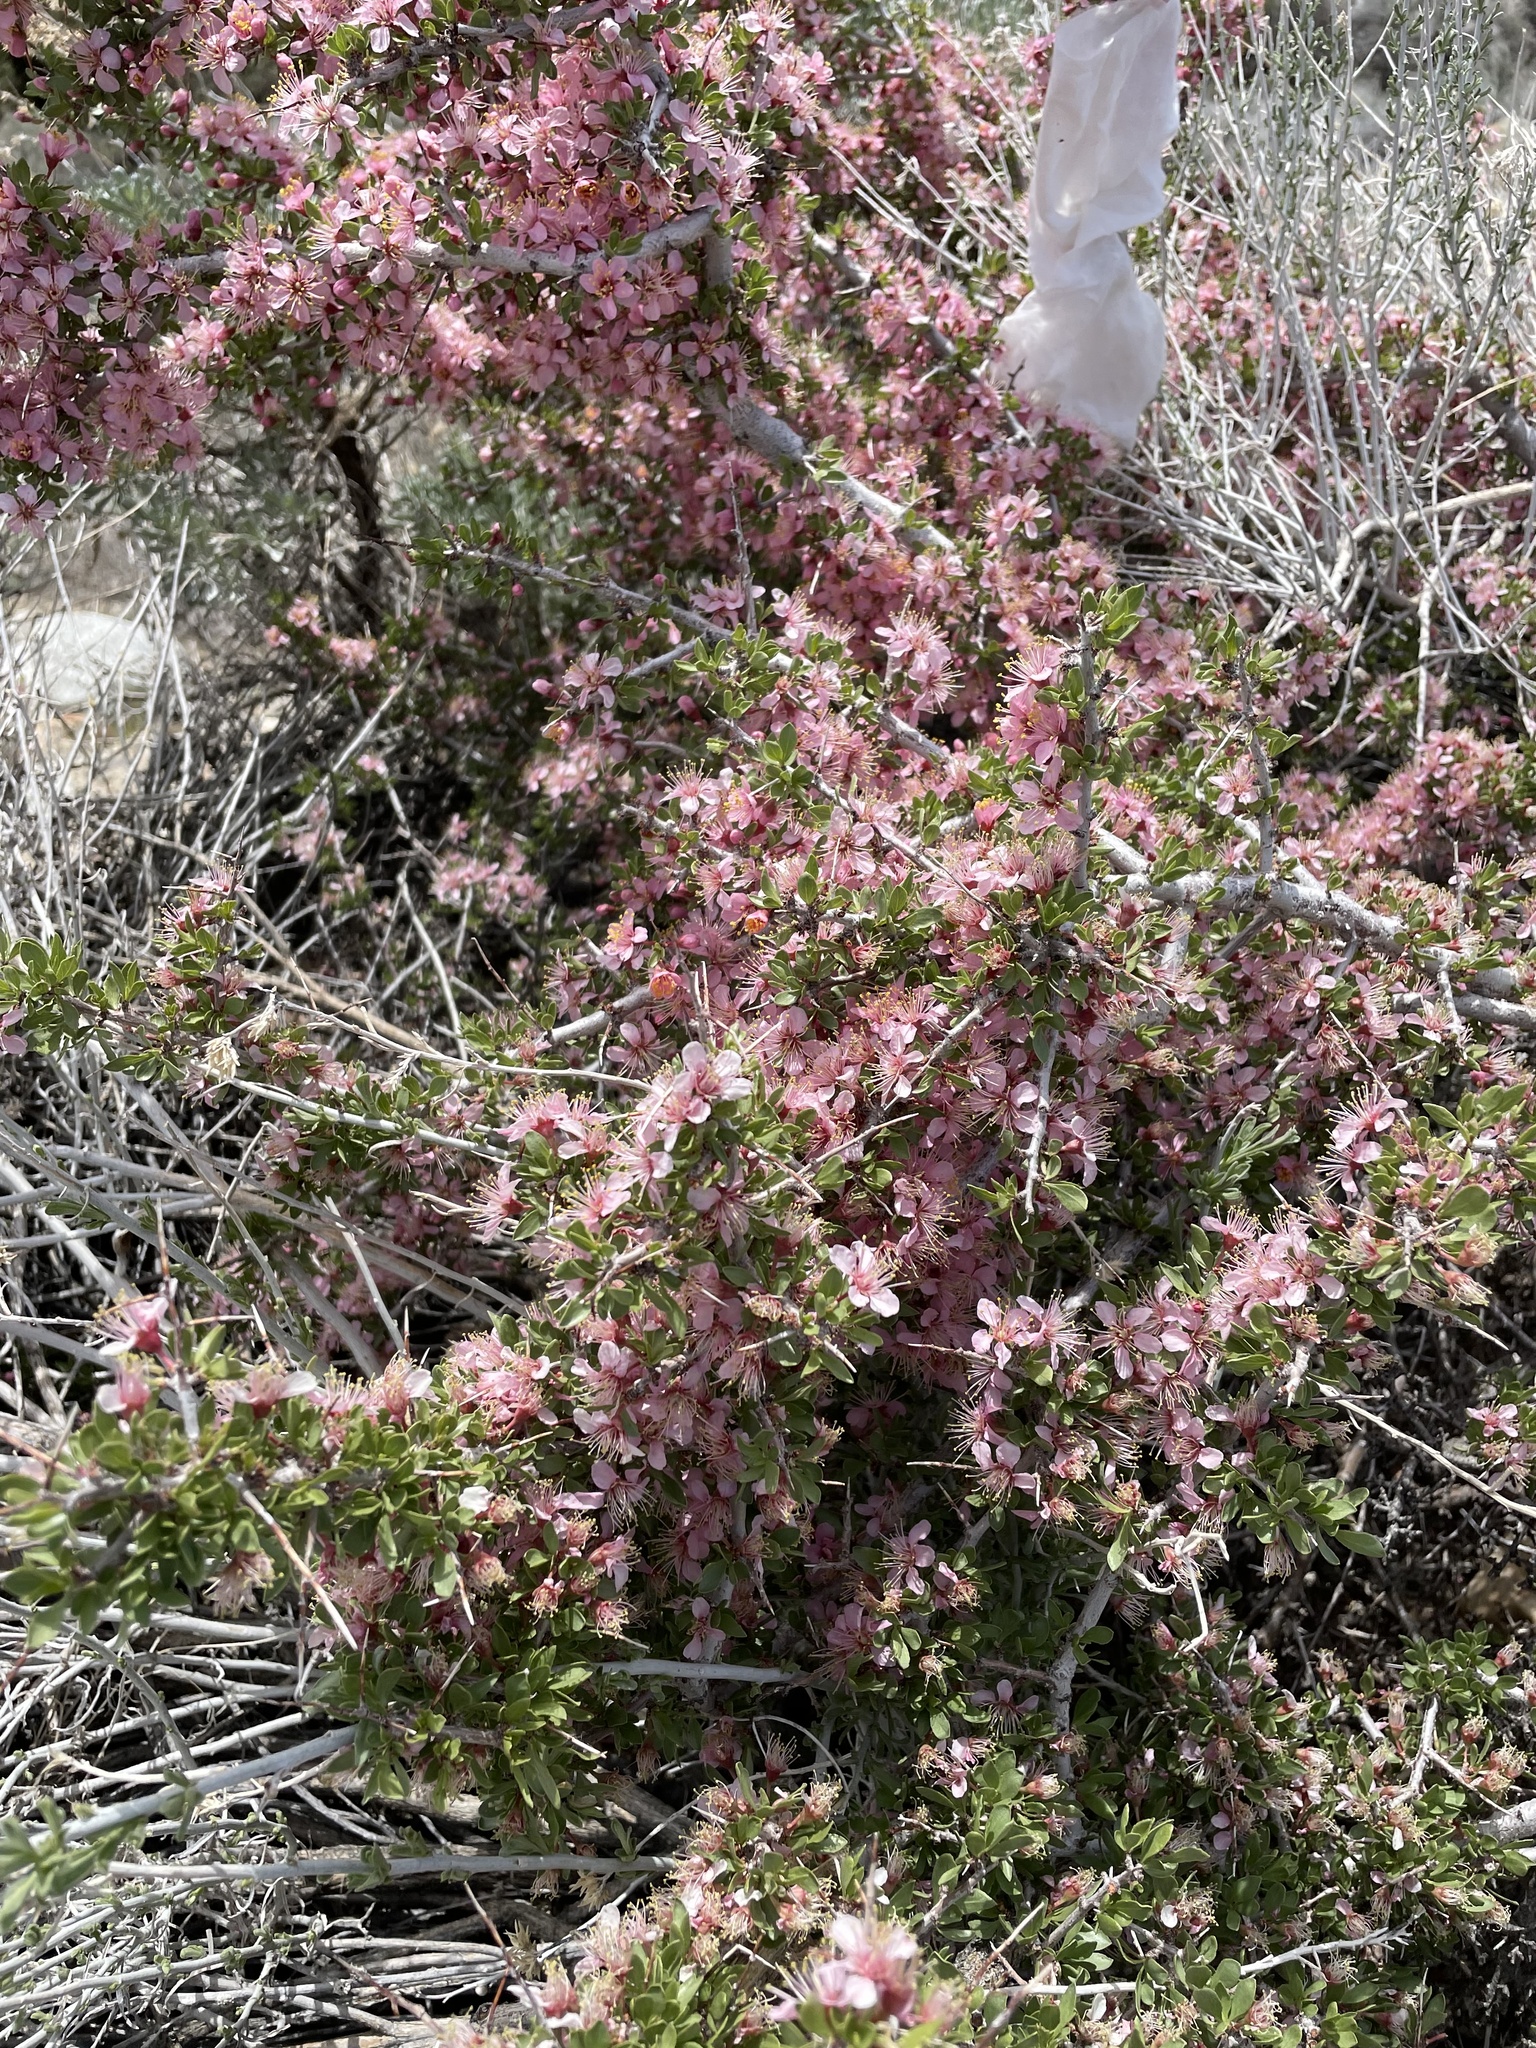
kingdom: Plantae
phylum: Tracheophyta
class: Magnoliopsida
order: Rosales
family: Rosaceae
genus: Prunus
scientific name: Prunus andersonii
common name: Desert peach
